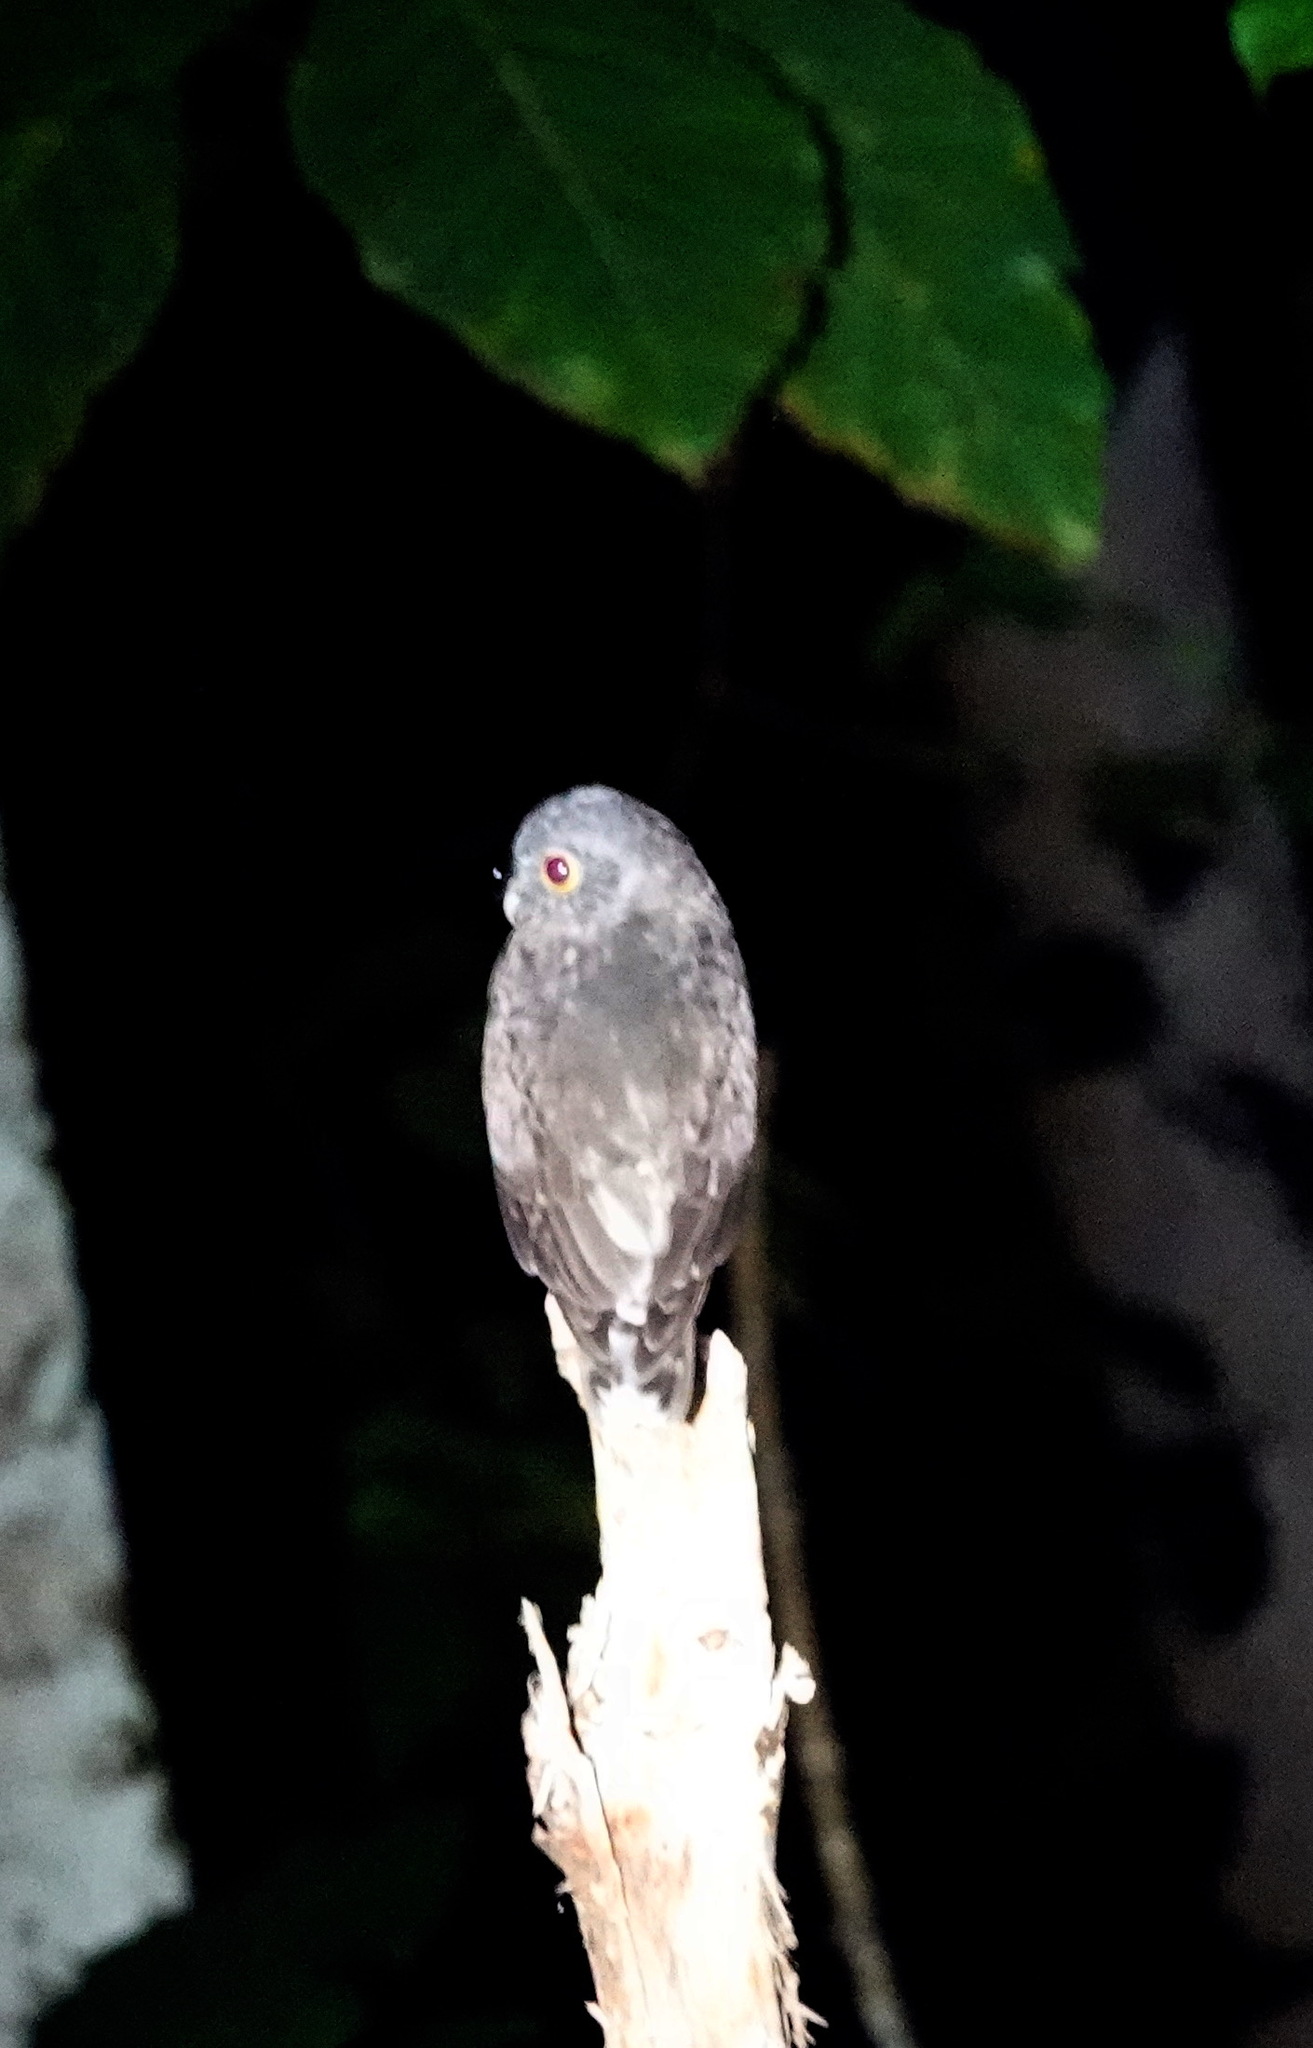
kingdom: Animalia
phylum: Chordata
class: Aves
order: Strigiformes
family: Strigidae
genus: Ninox
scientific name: Ninox scutulata
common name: Brown hawk-owl
